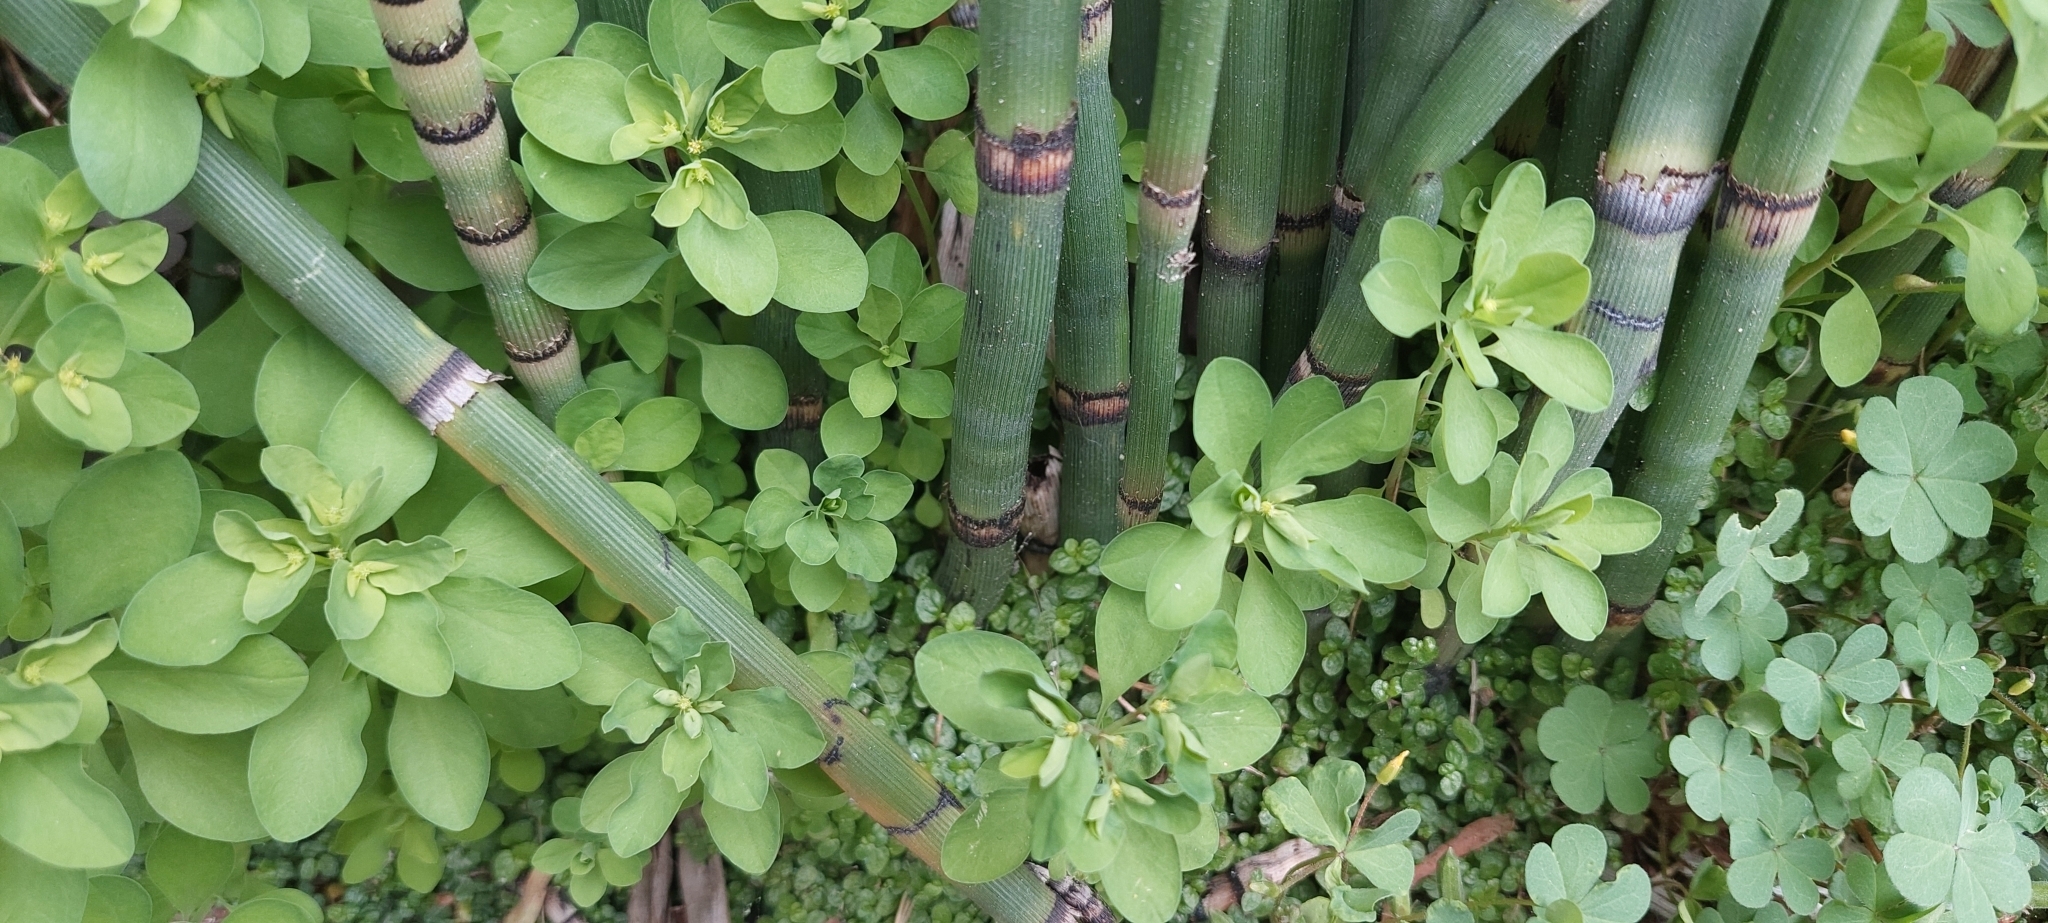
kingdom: Plantae
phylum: Tracheophyta
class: Magnoliopsida
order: Malpighiales
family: Euphorbiaceae
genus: Euphorbia
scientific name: Euphorbia peplus
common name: Petty spurge
